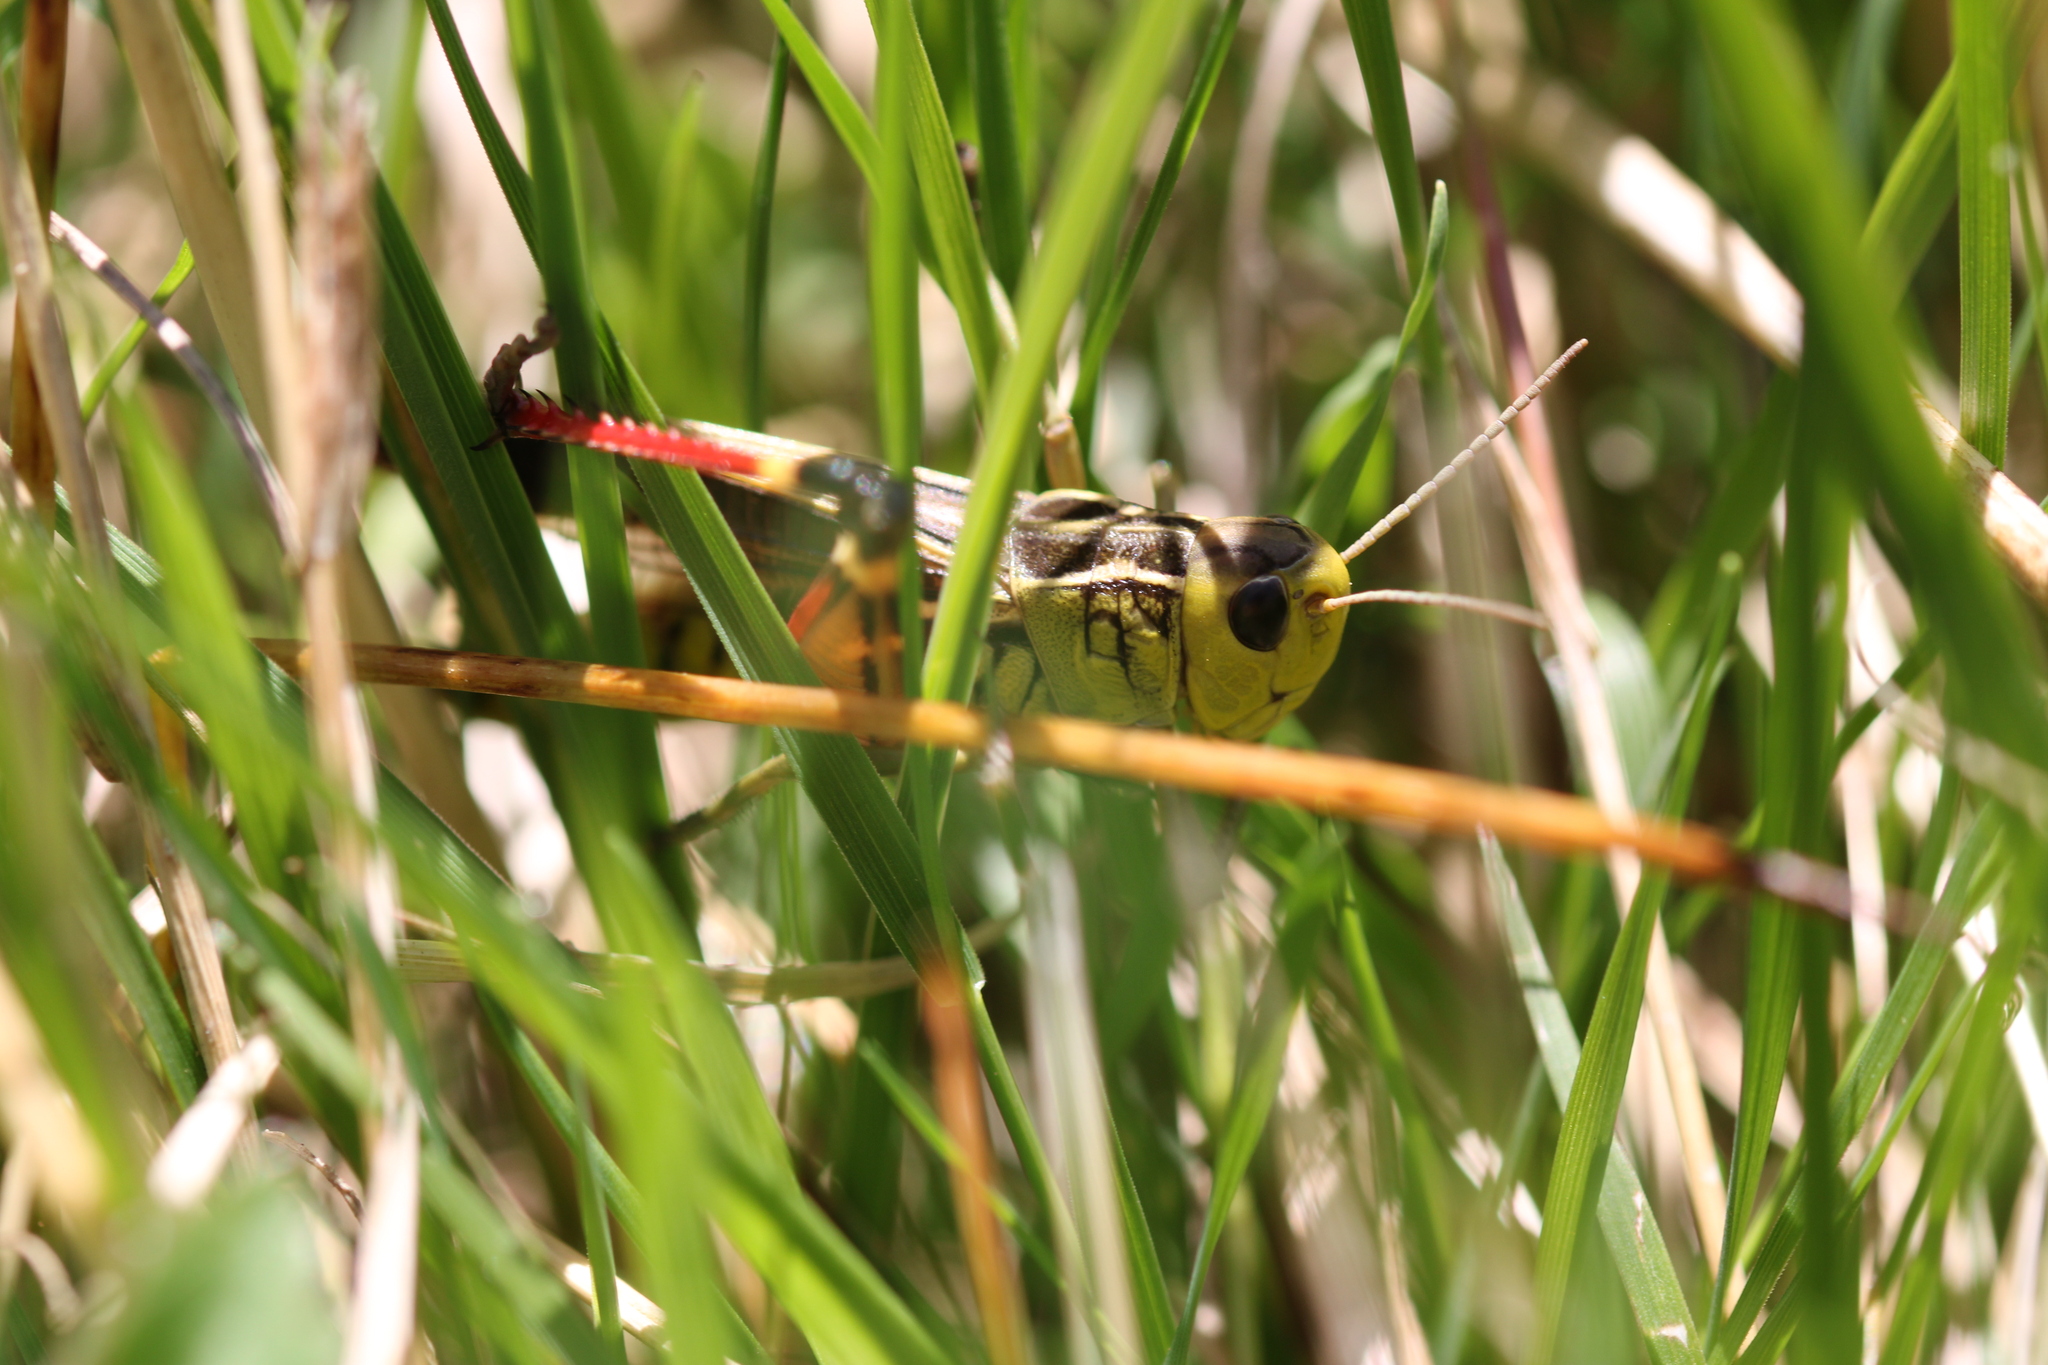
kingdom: Animalia
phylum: Arthropoda
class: Insecta
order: Orthoptera
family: Acrididae
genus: Arcyptera
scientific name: Arcyptera fusca
